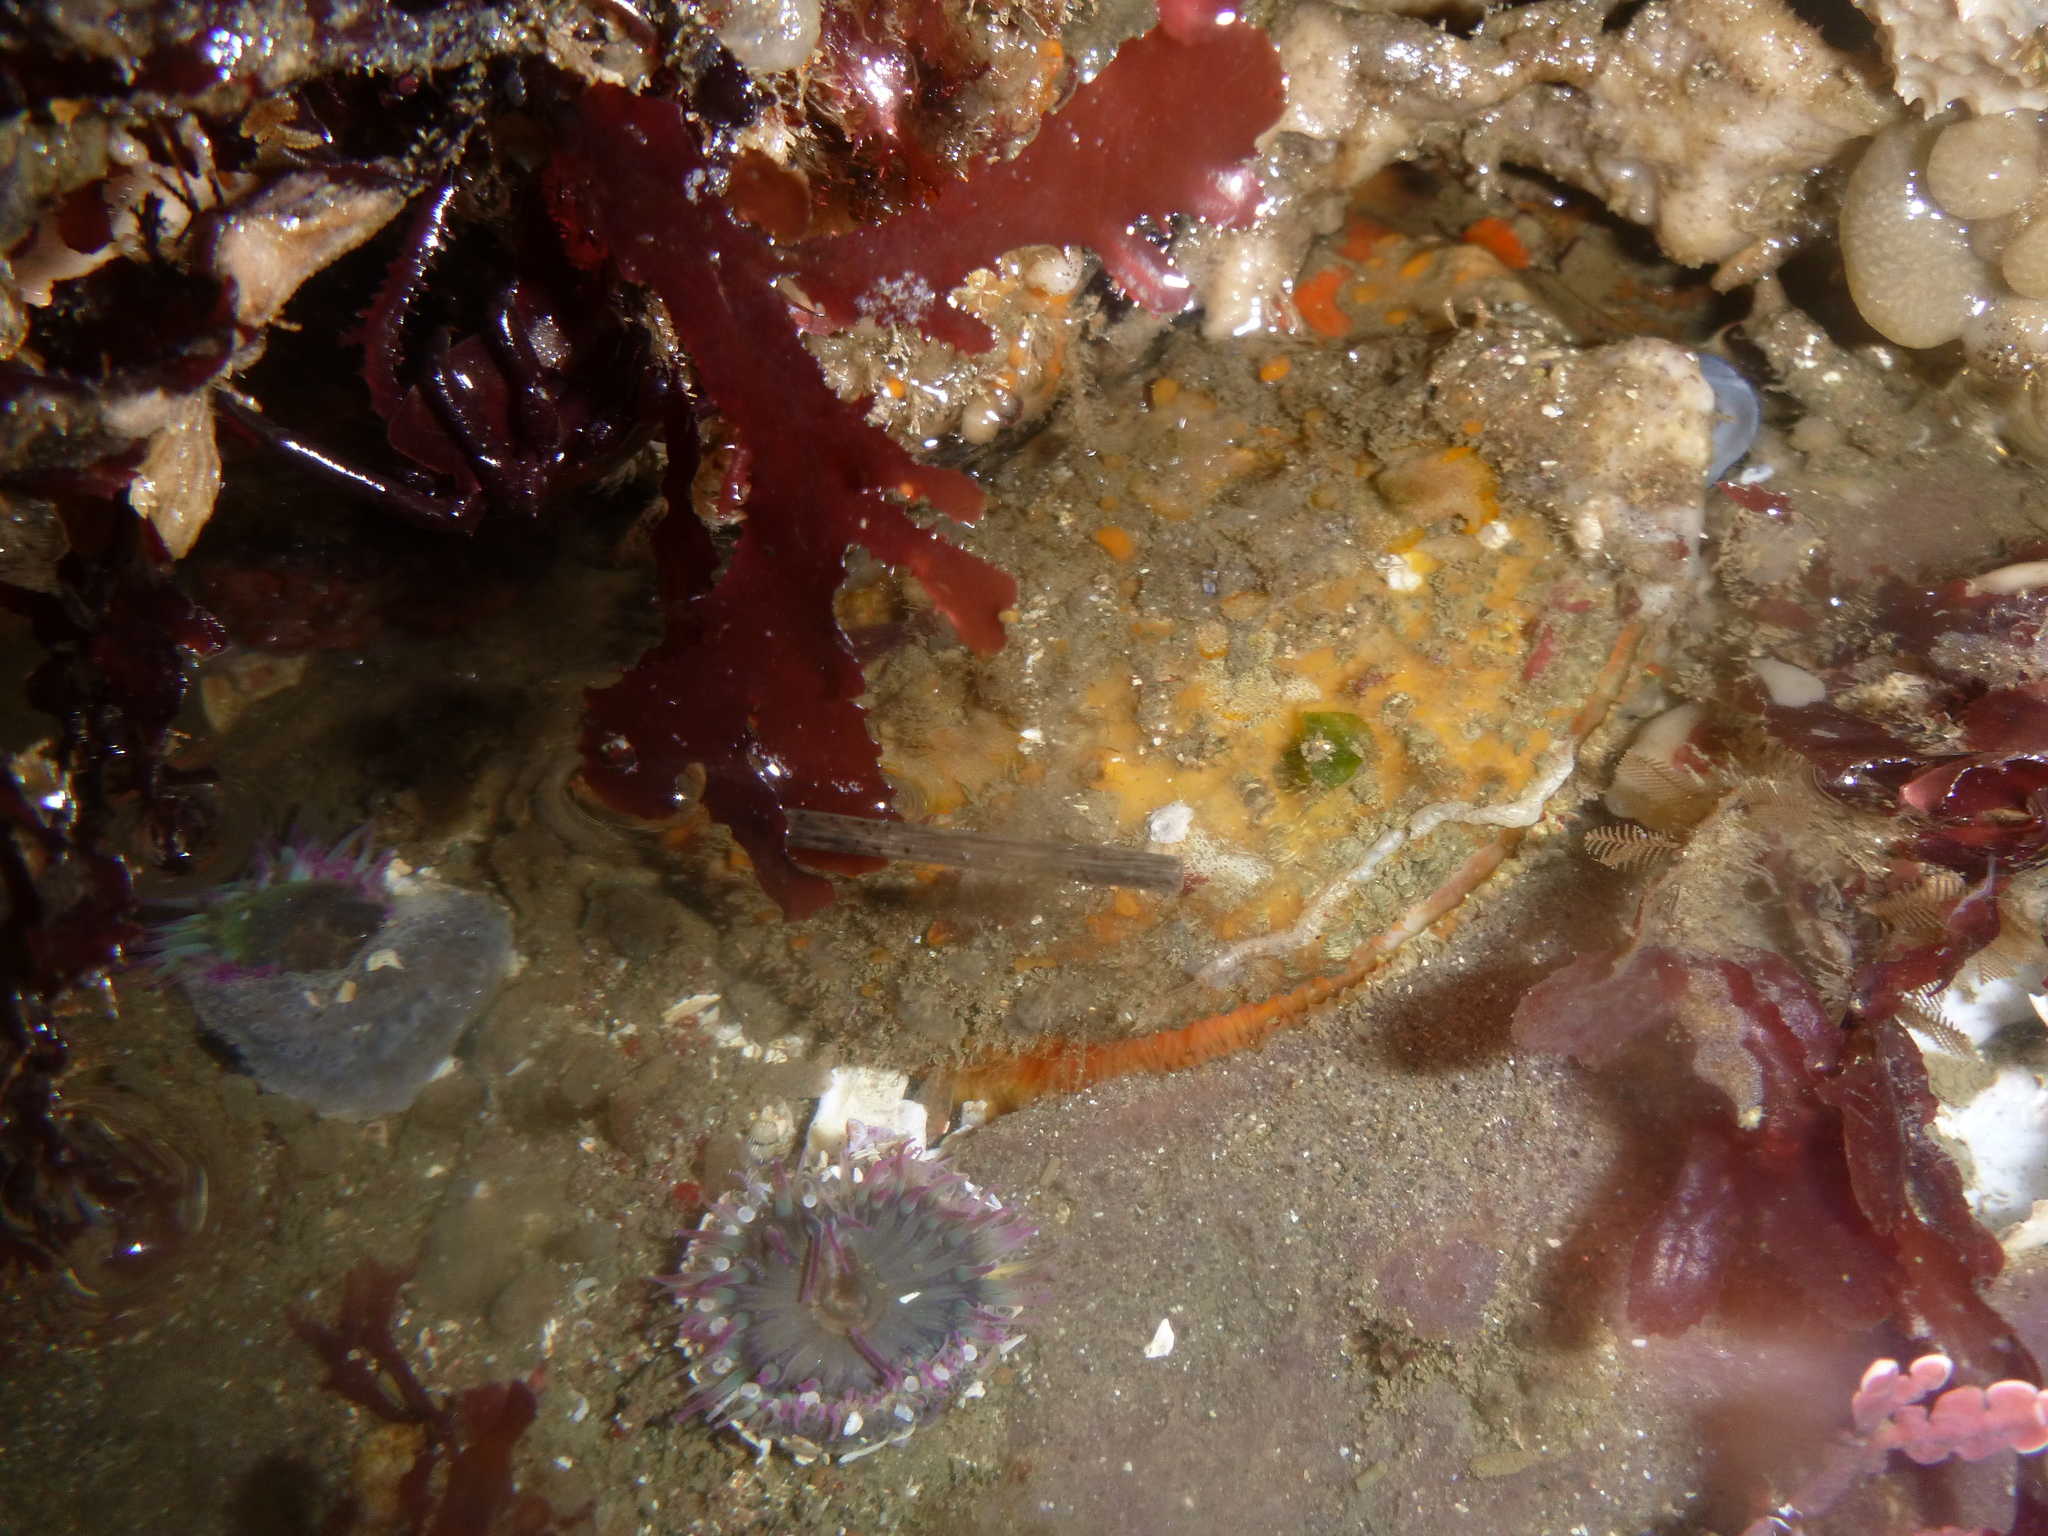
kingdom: Animalia
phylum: Mollusca
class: Bivalvia
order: Pectinida
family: Pectinidae
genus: Crassadoma
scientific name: Crassadoma gigantea
